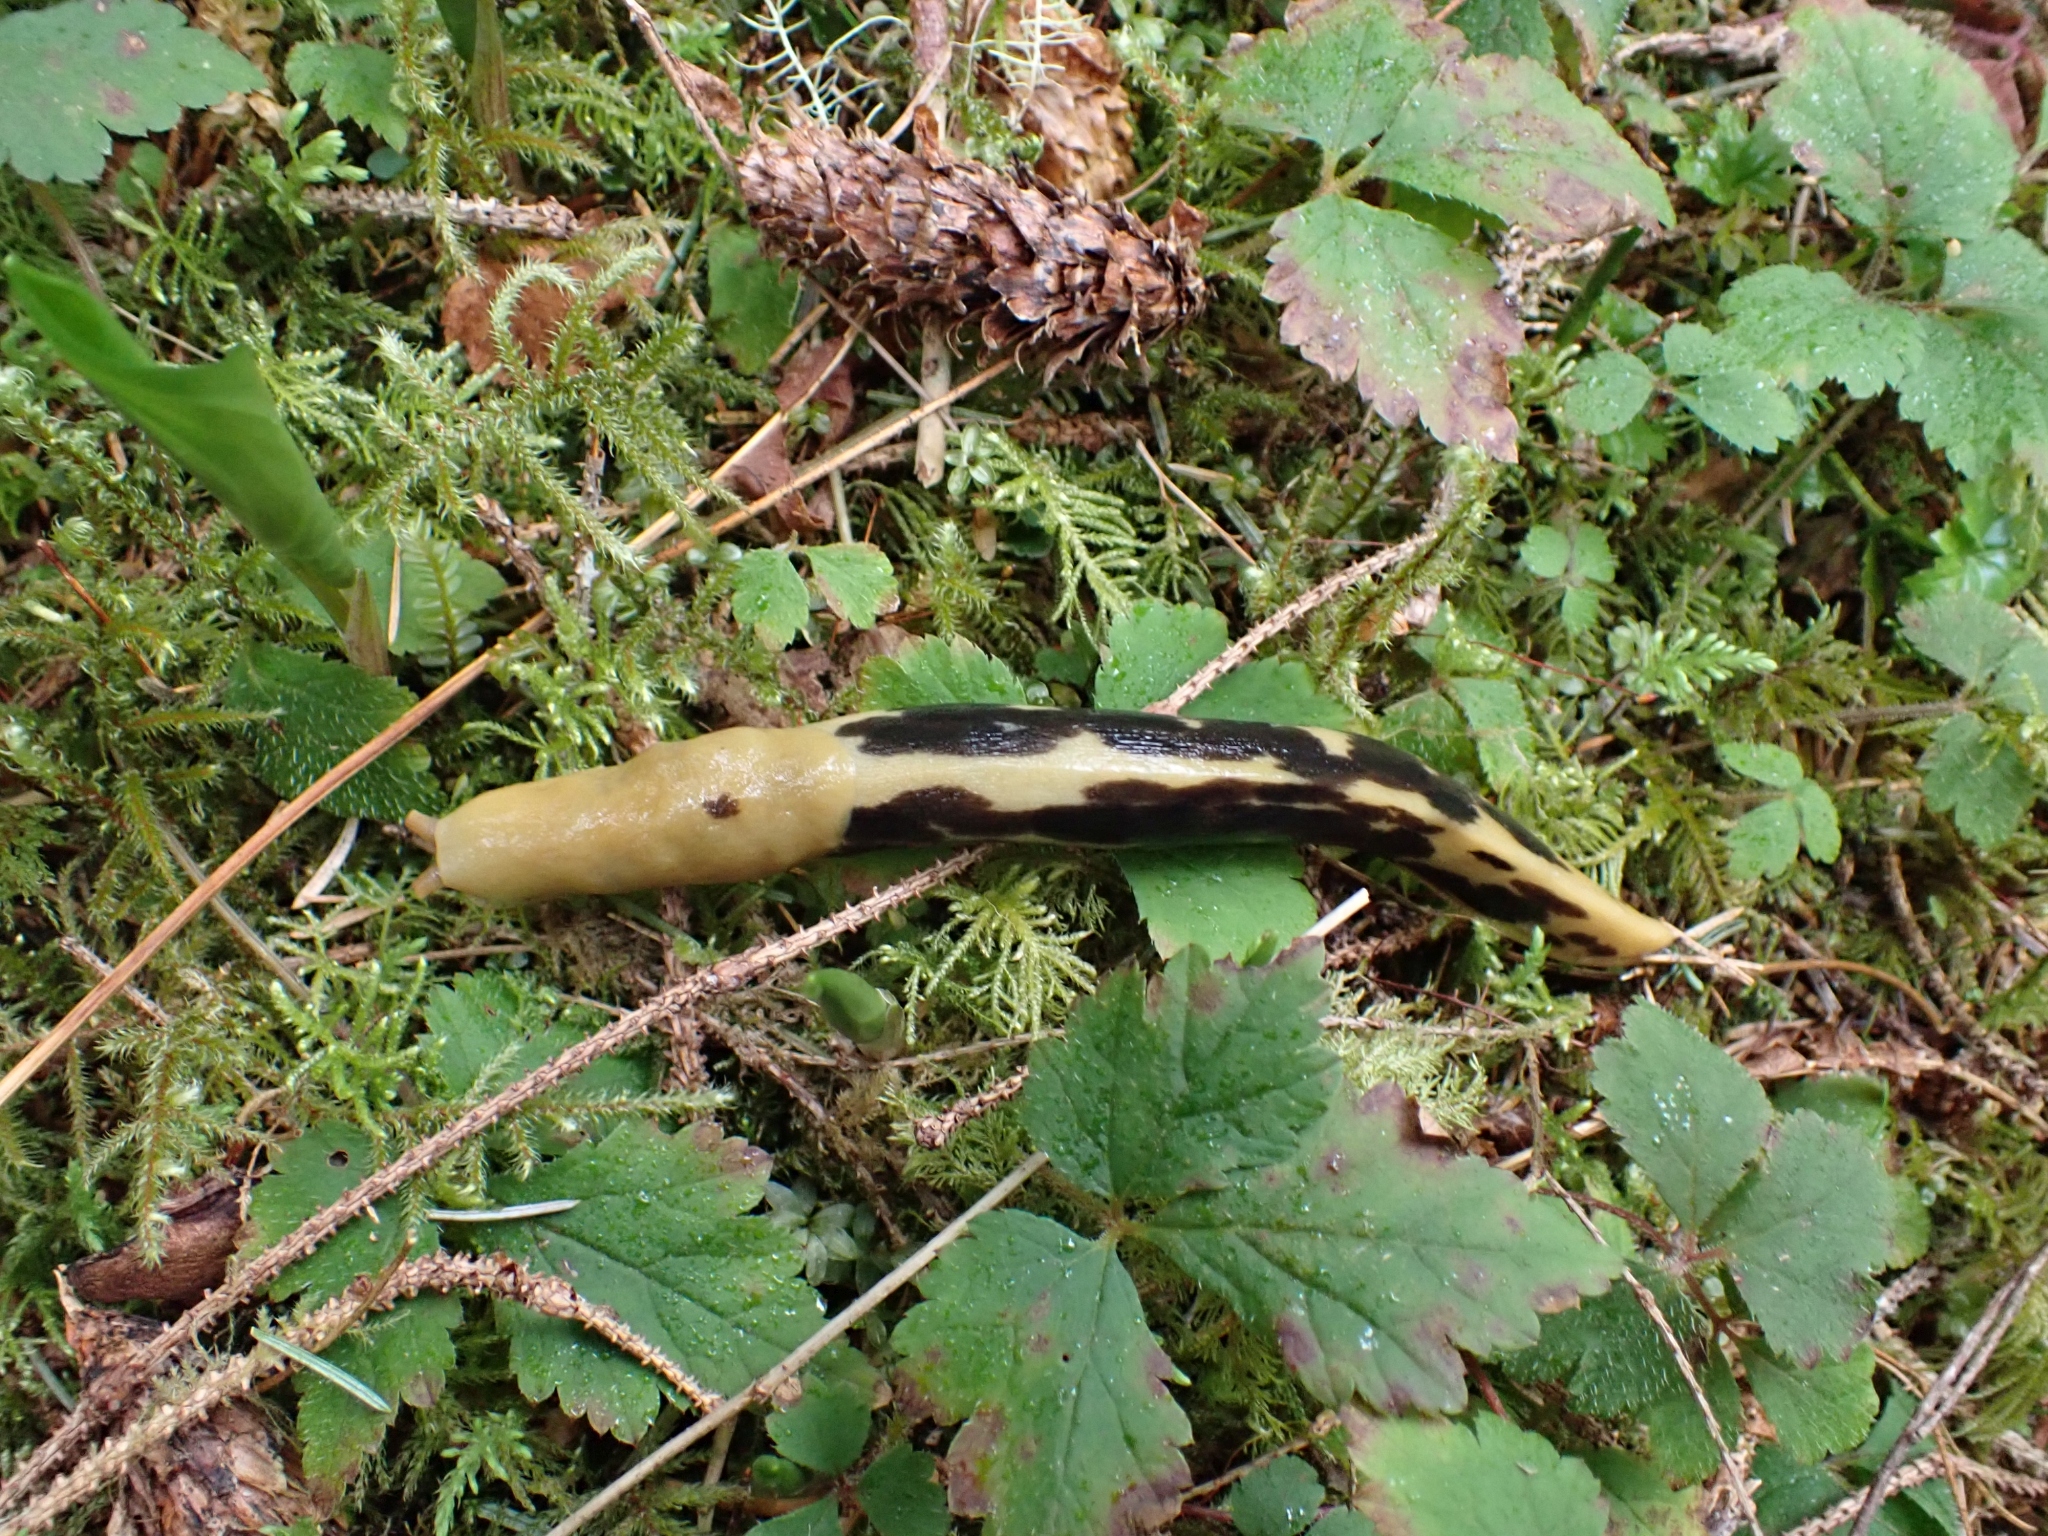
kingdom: Animalia
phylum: Mollusca
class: Gastropoda
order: Stylommatophora
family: Ariolimacidae
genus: Ariolimax
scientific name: Ariolimax columbianus
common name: Pacific banana slug
